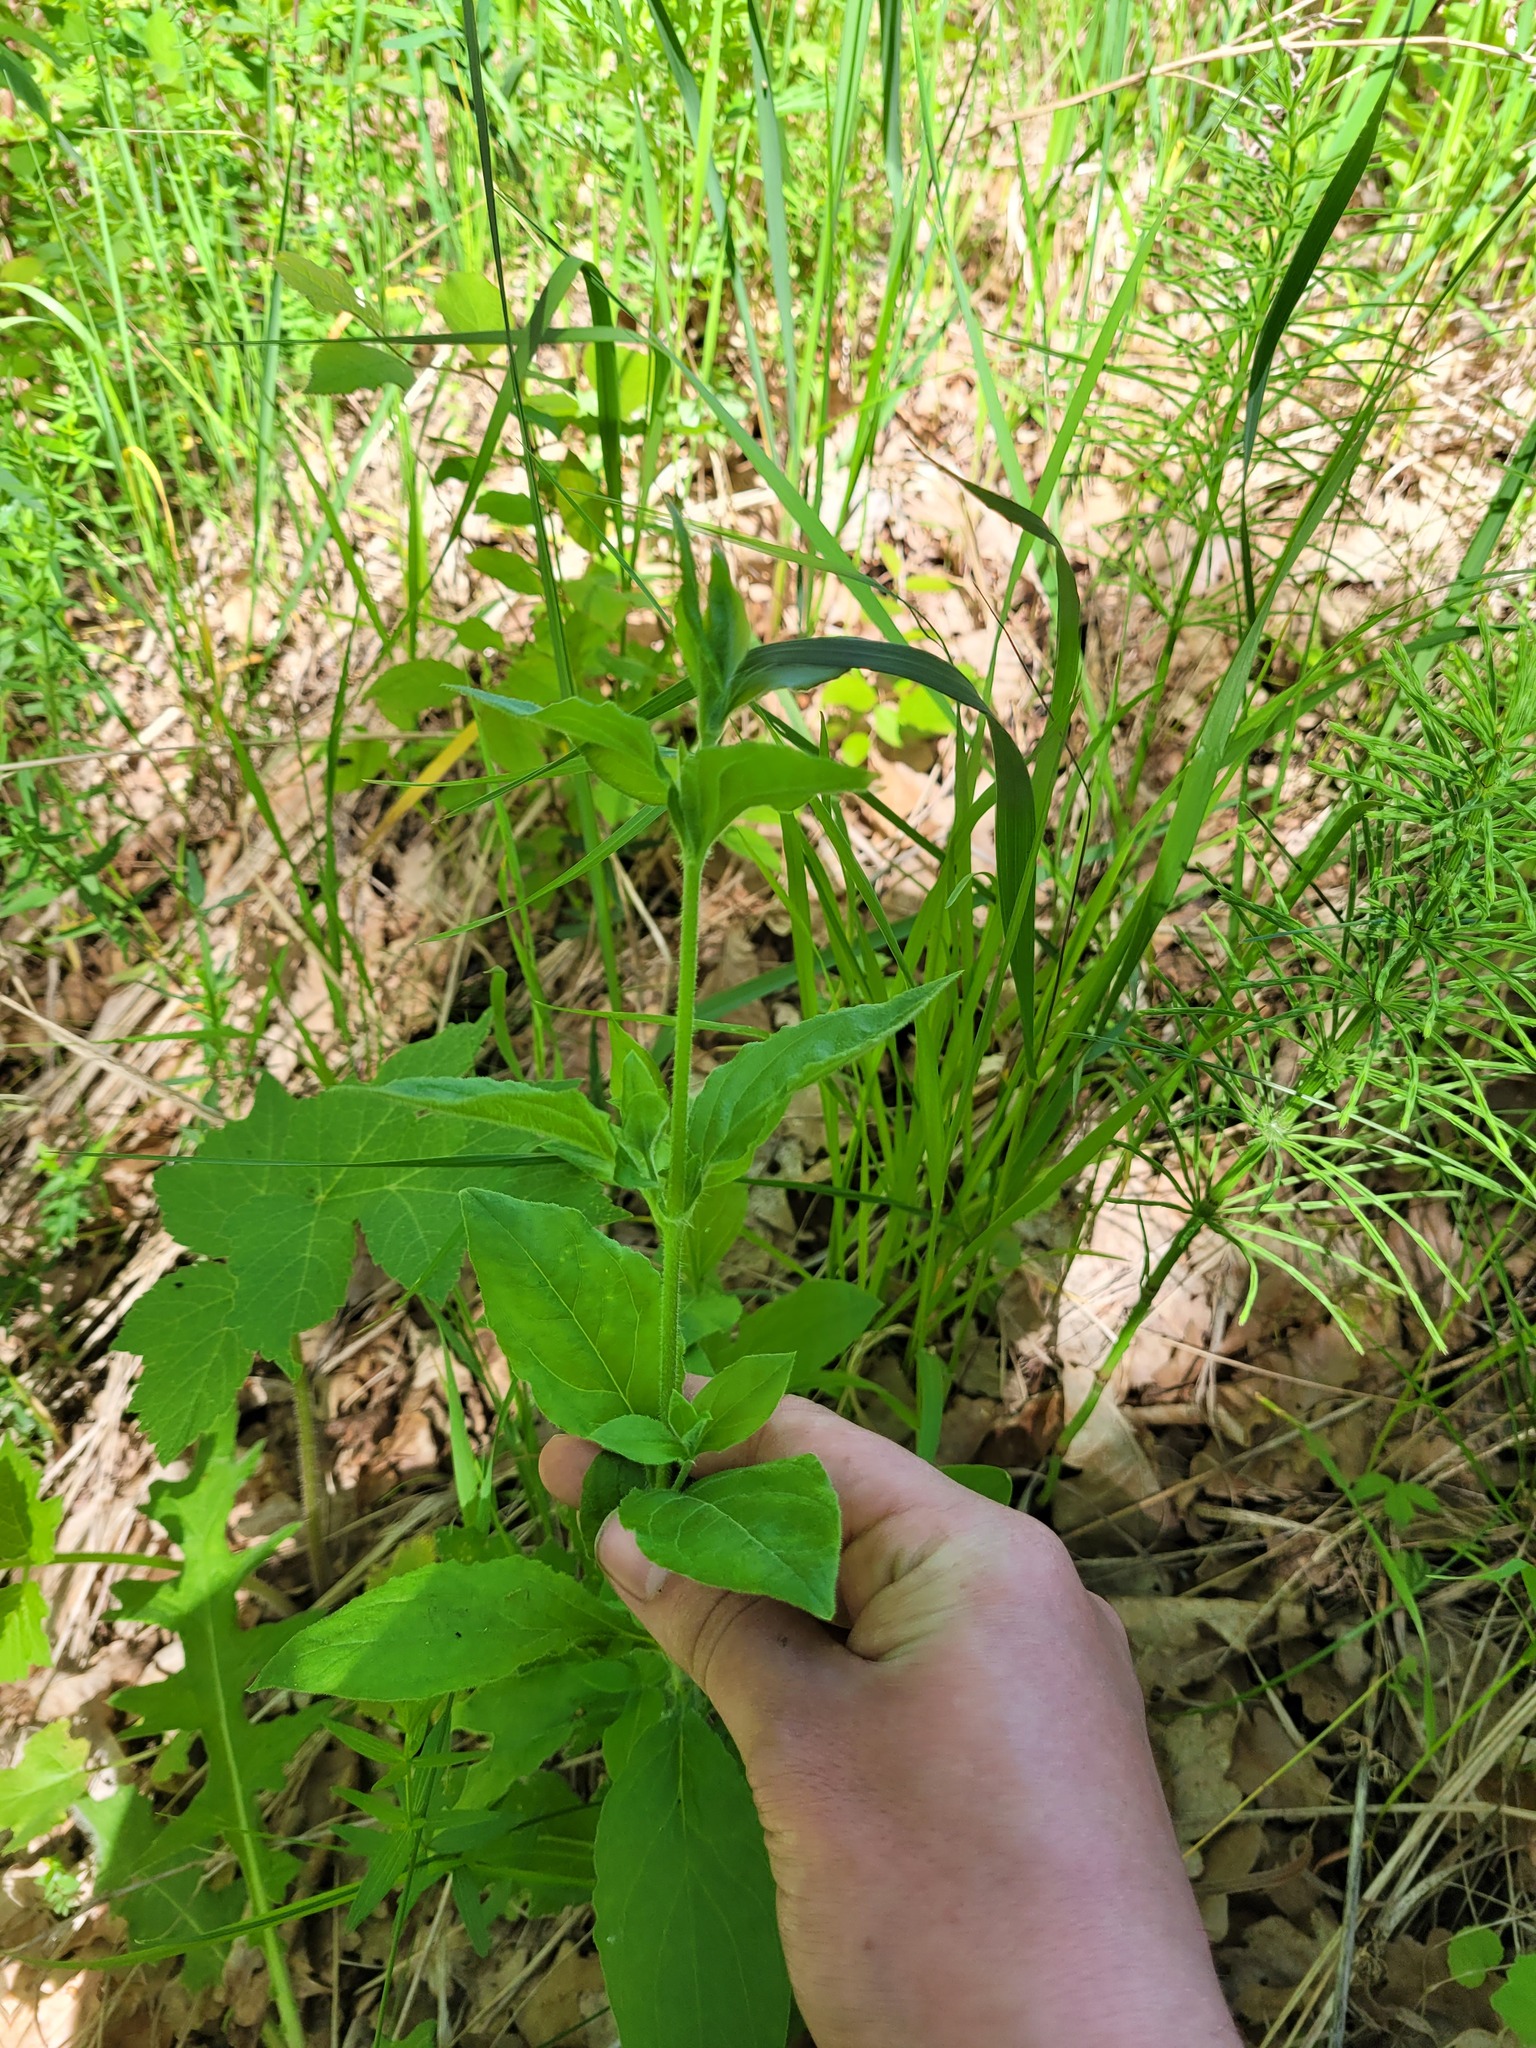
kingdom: Plantae
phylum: Tracheophyta
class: Magnoliopsida
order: Caryophyllales
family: Caryophyllaceae
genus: Silene
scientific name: Silene baccifera
